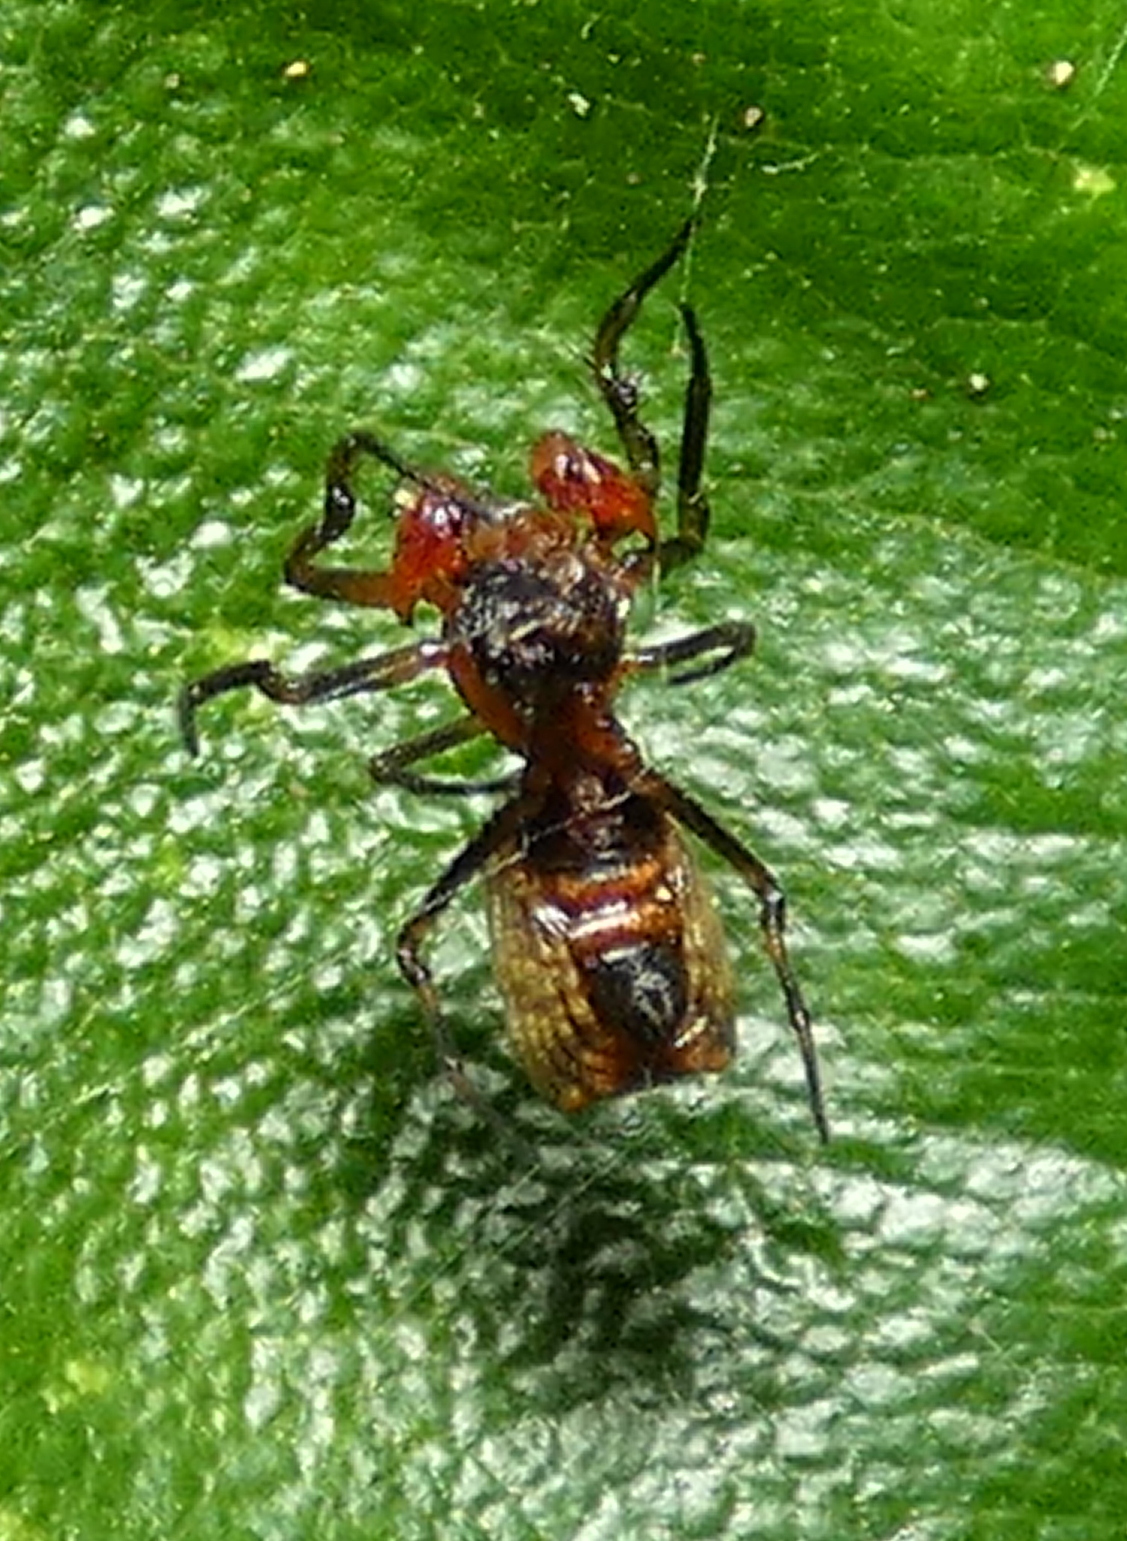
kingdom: Animalia
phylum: Arthropoda
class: Arachnida
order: Araneae
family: Araneidae
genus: Micrathena
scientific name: Micrathena picta
